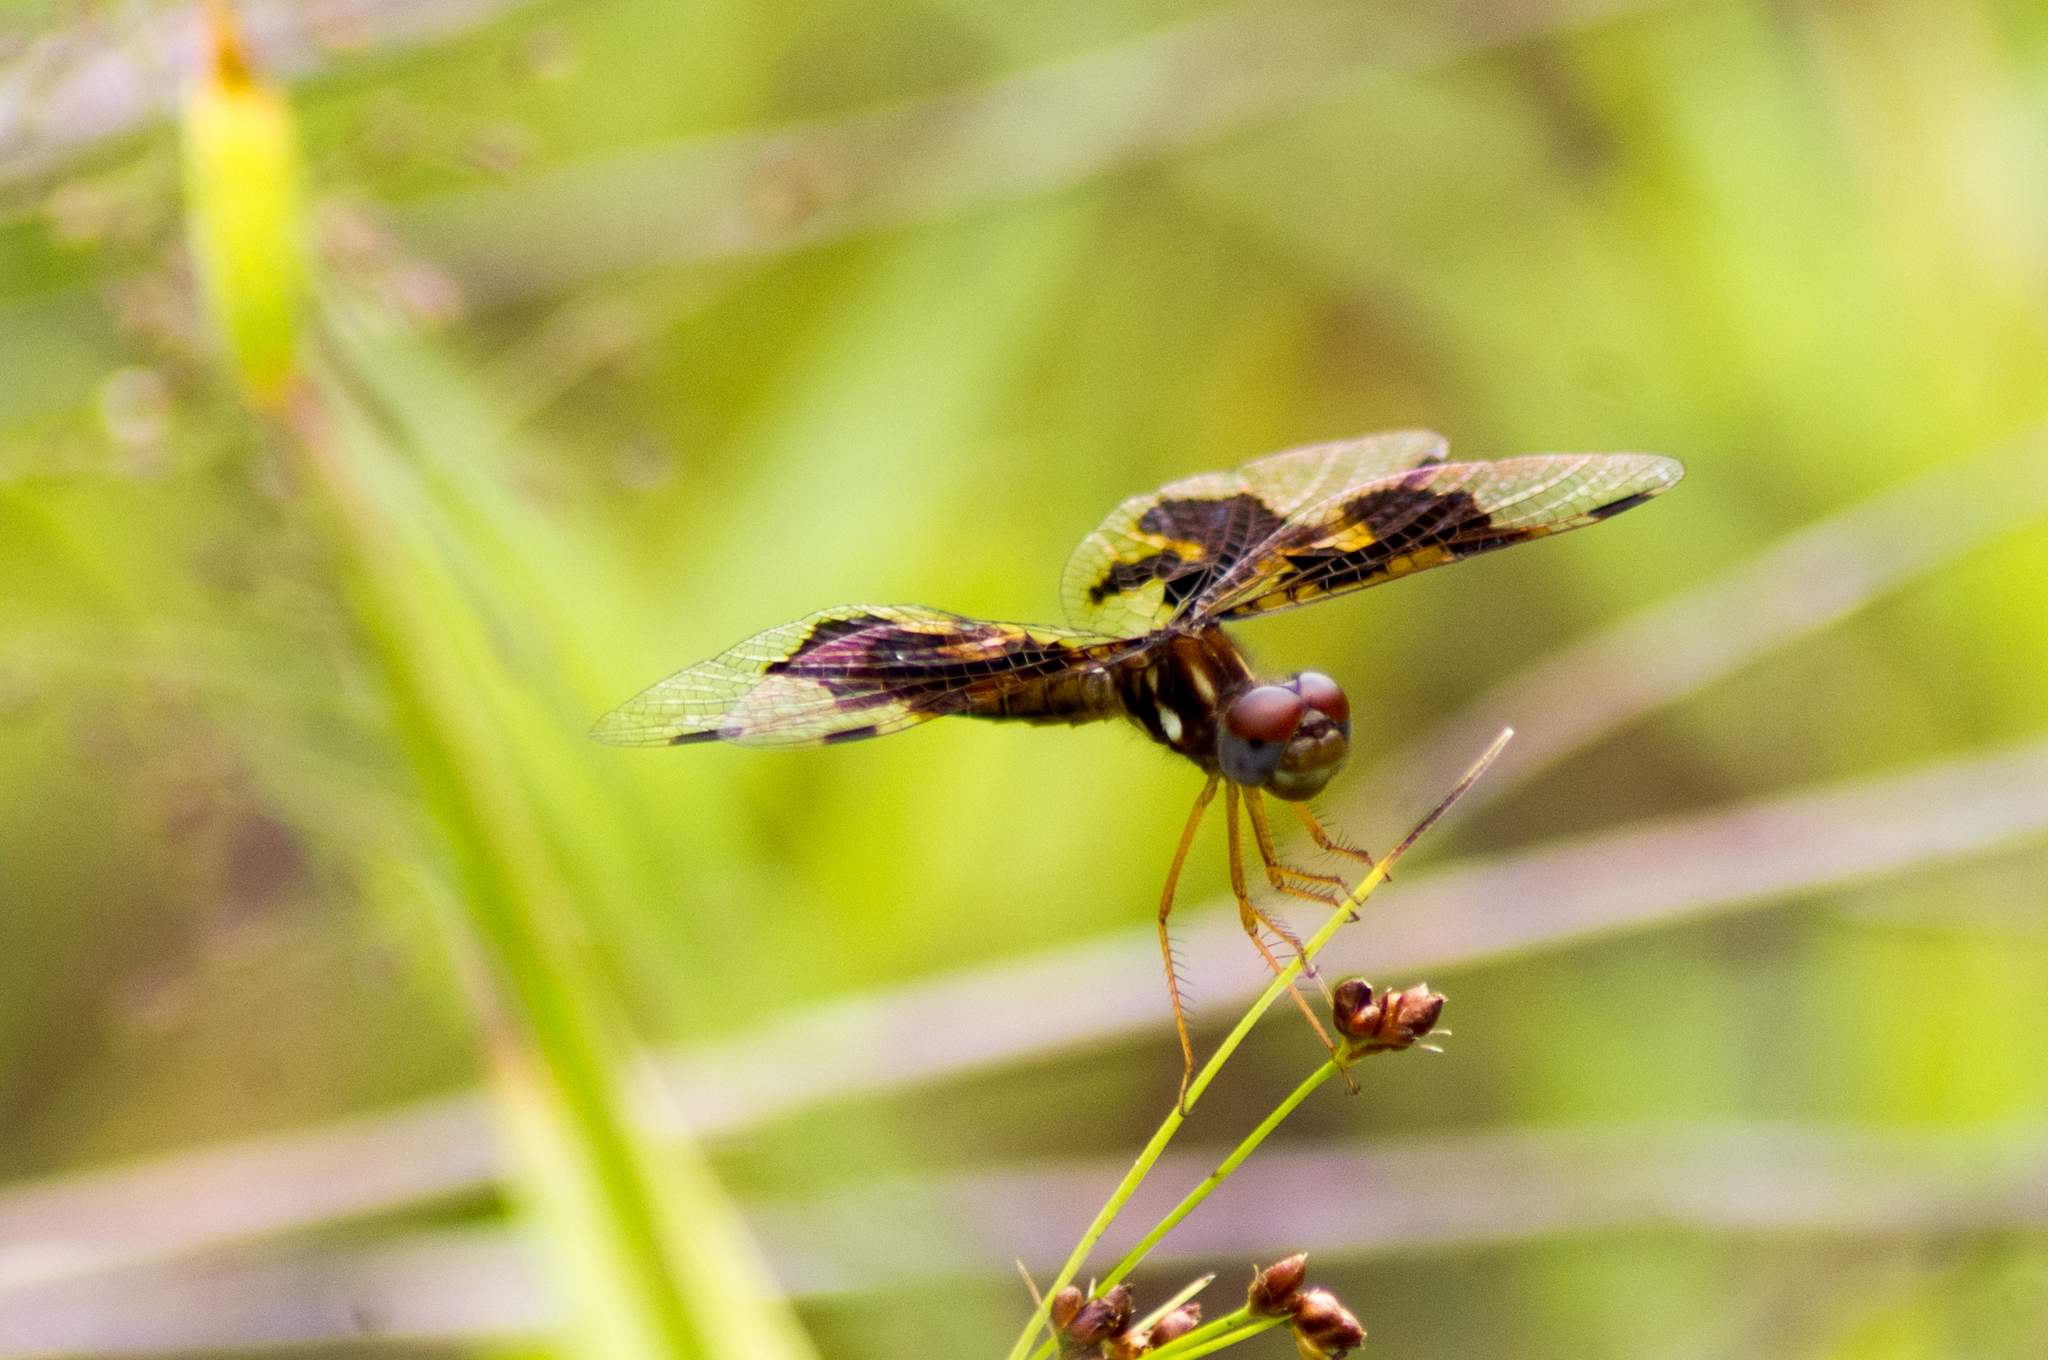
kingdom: Animalia
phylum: Arthropoda
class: Insecta
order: Odonata
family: Libellulidae
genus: Perithemis
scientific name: Perithemis tenera
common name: Eastern amberwing
